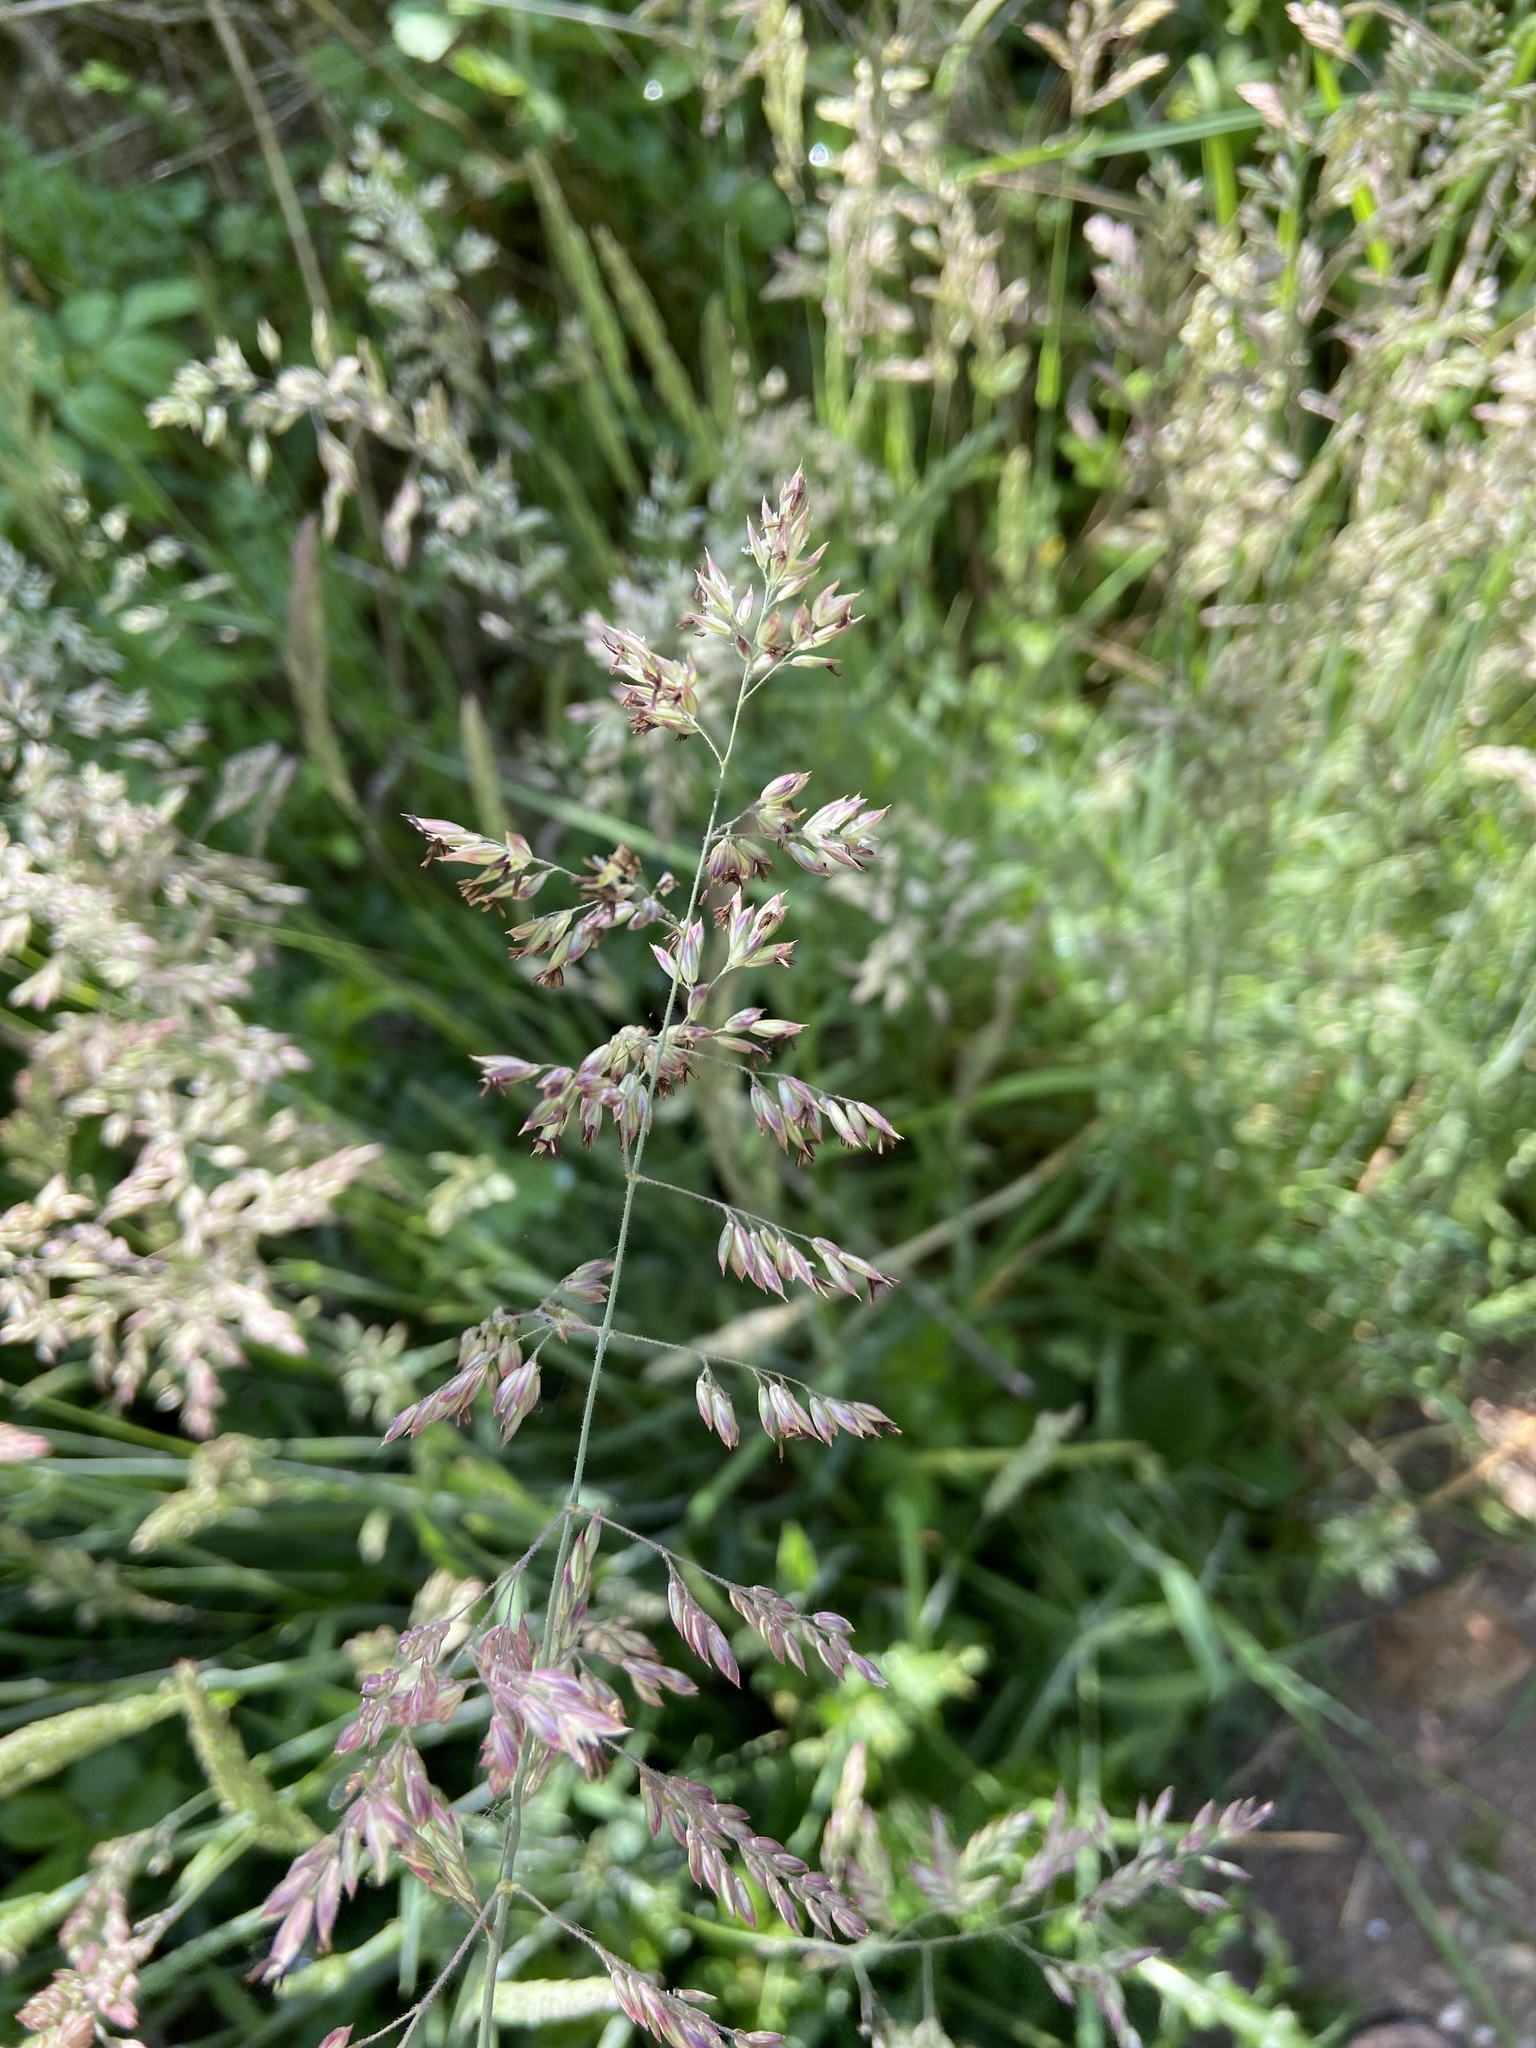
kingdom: Plantae
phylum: Tracheophyta
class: Liliopsida
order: Poales
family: Poaceae
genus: Holcus
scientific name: Holcus lanatus
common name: Yorkshire-fog
